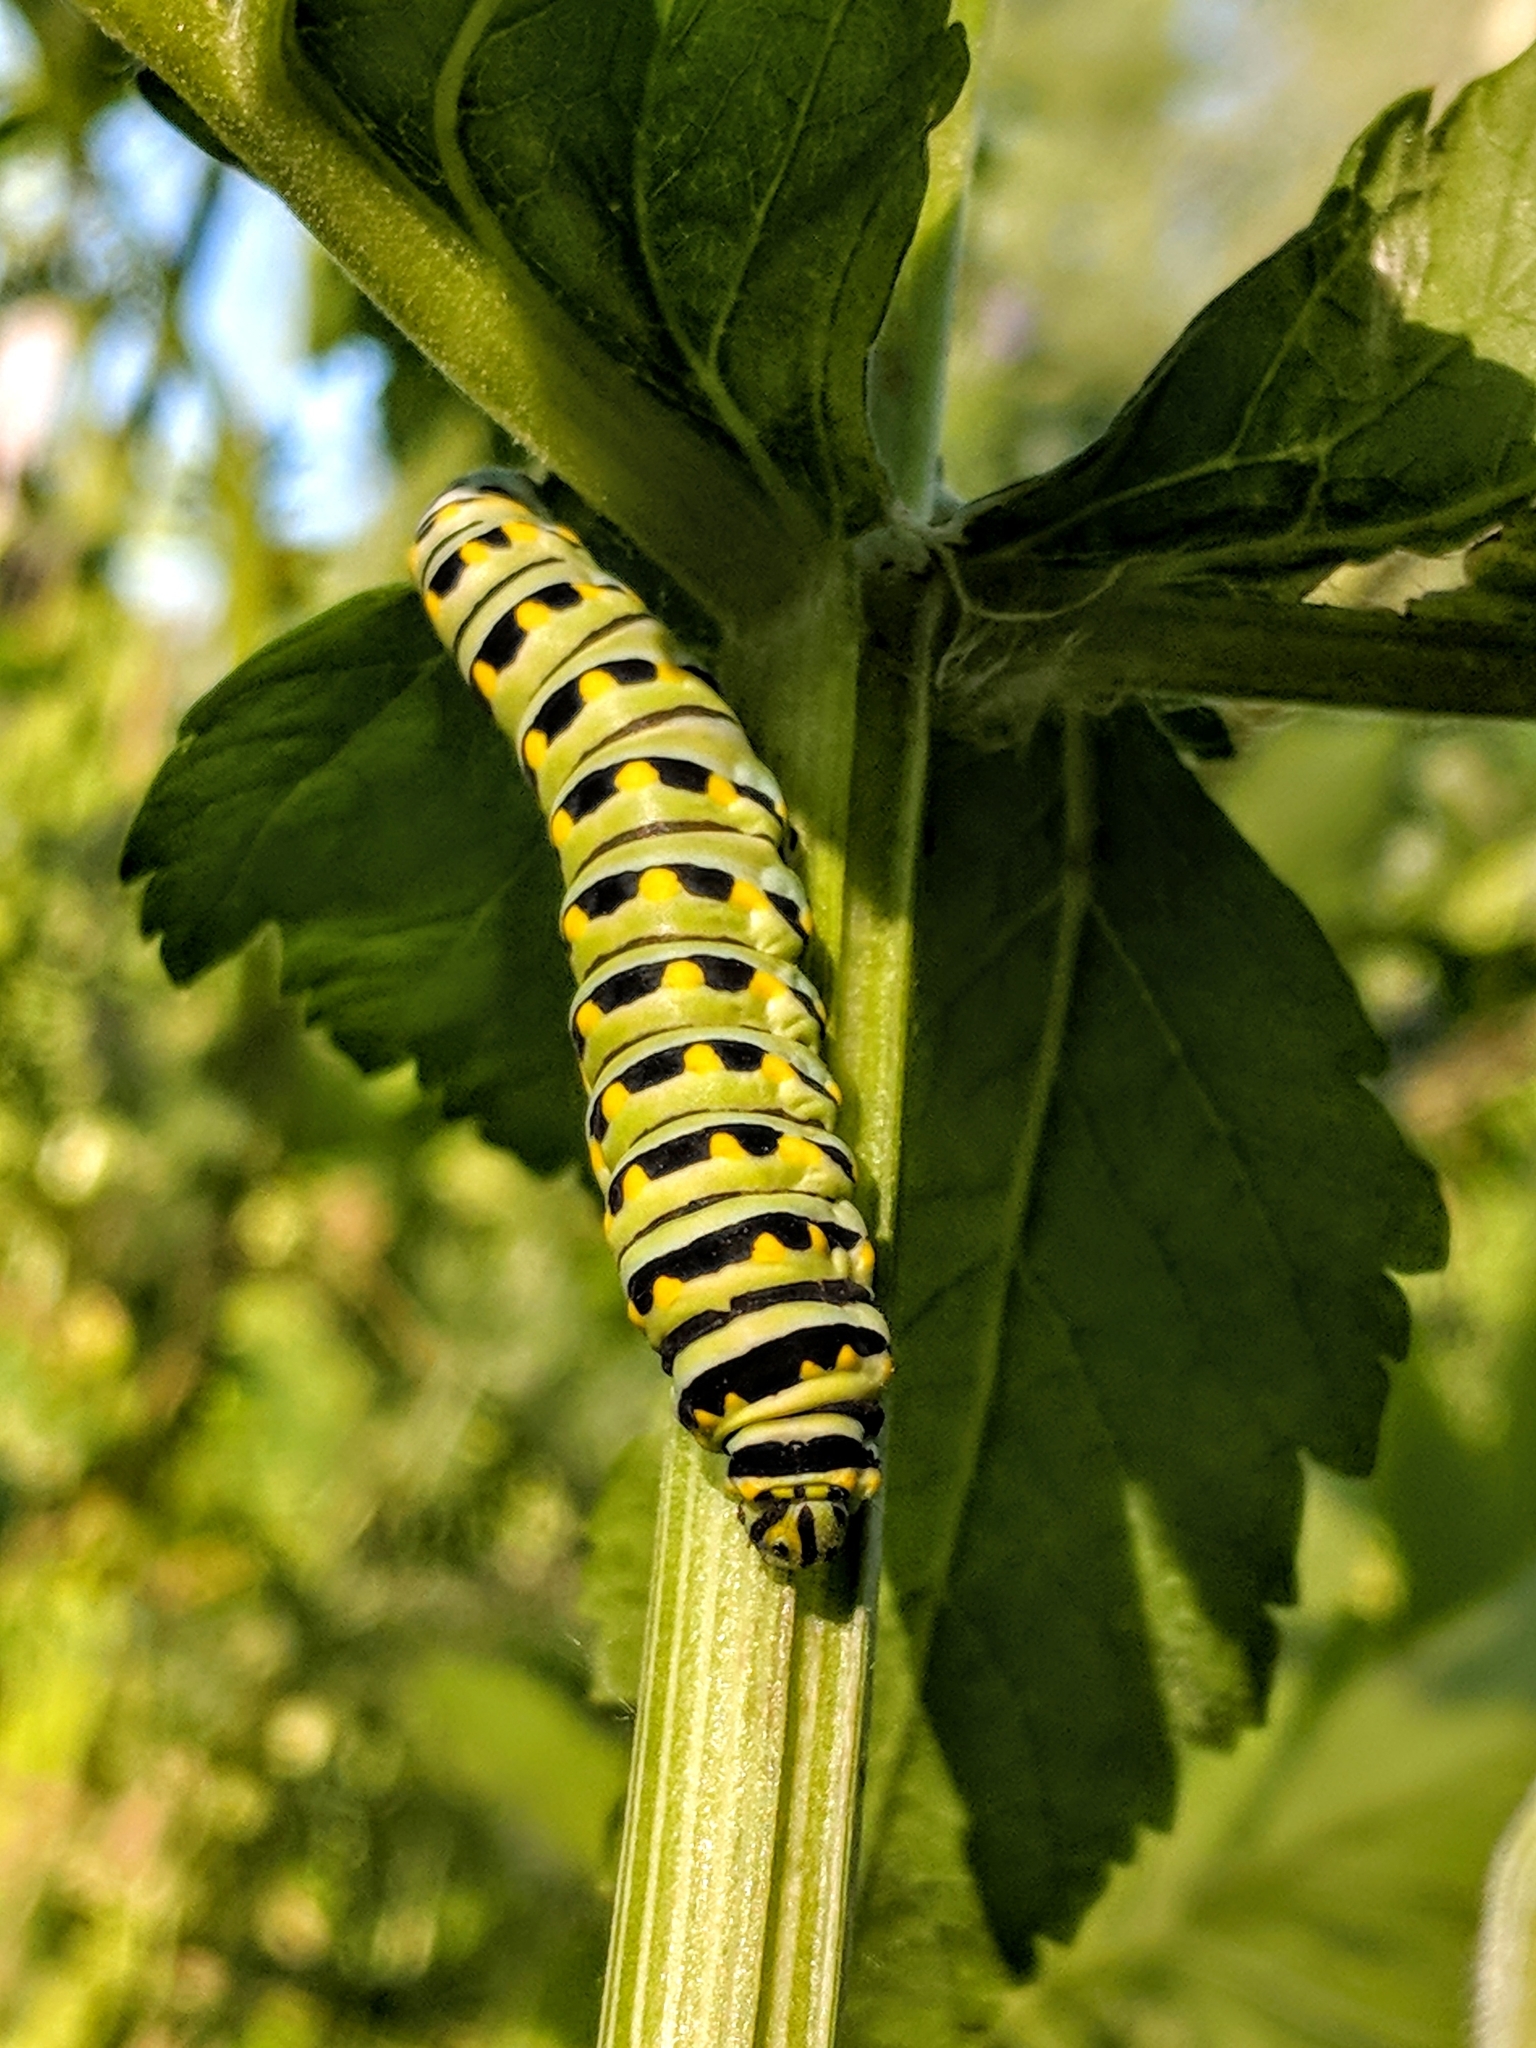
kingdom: Animalia
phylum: Arthropoda
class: Insecta
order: Lepidoptera
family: Papilionidae
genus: Papilio
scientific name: Papilio polyxenes
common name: Black swallowtail
